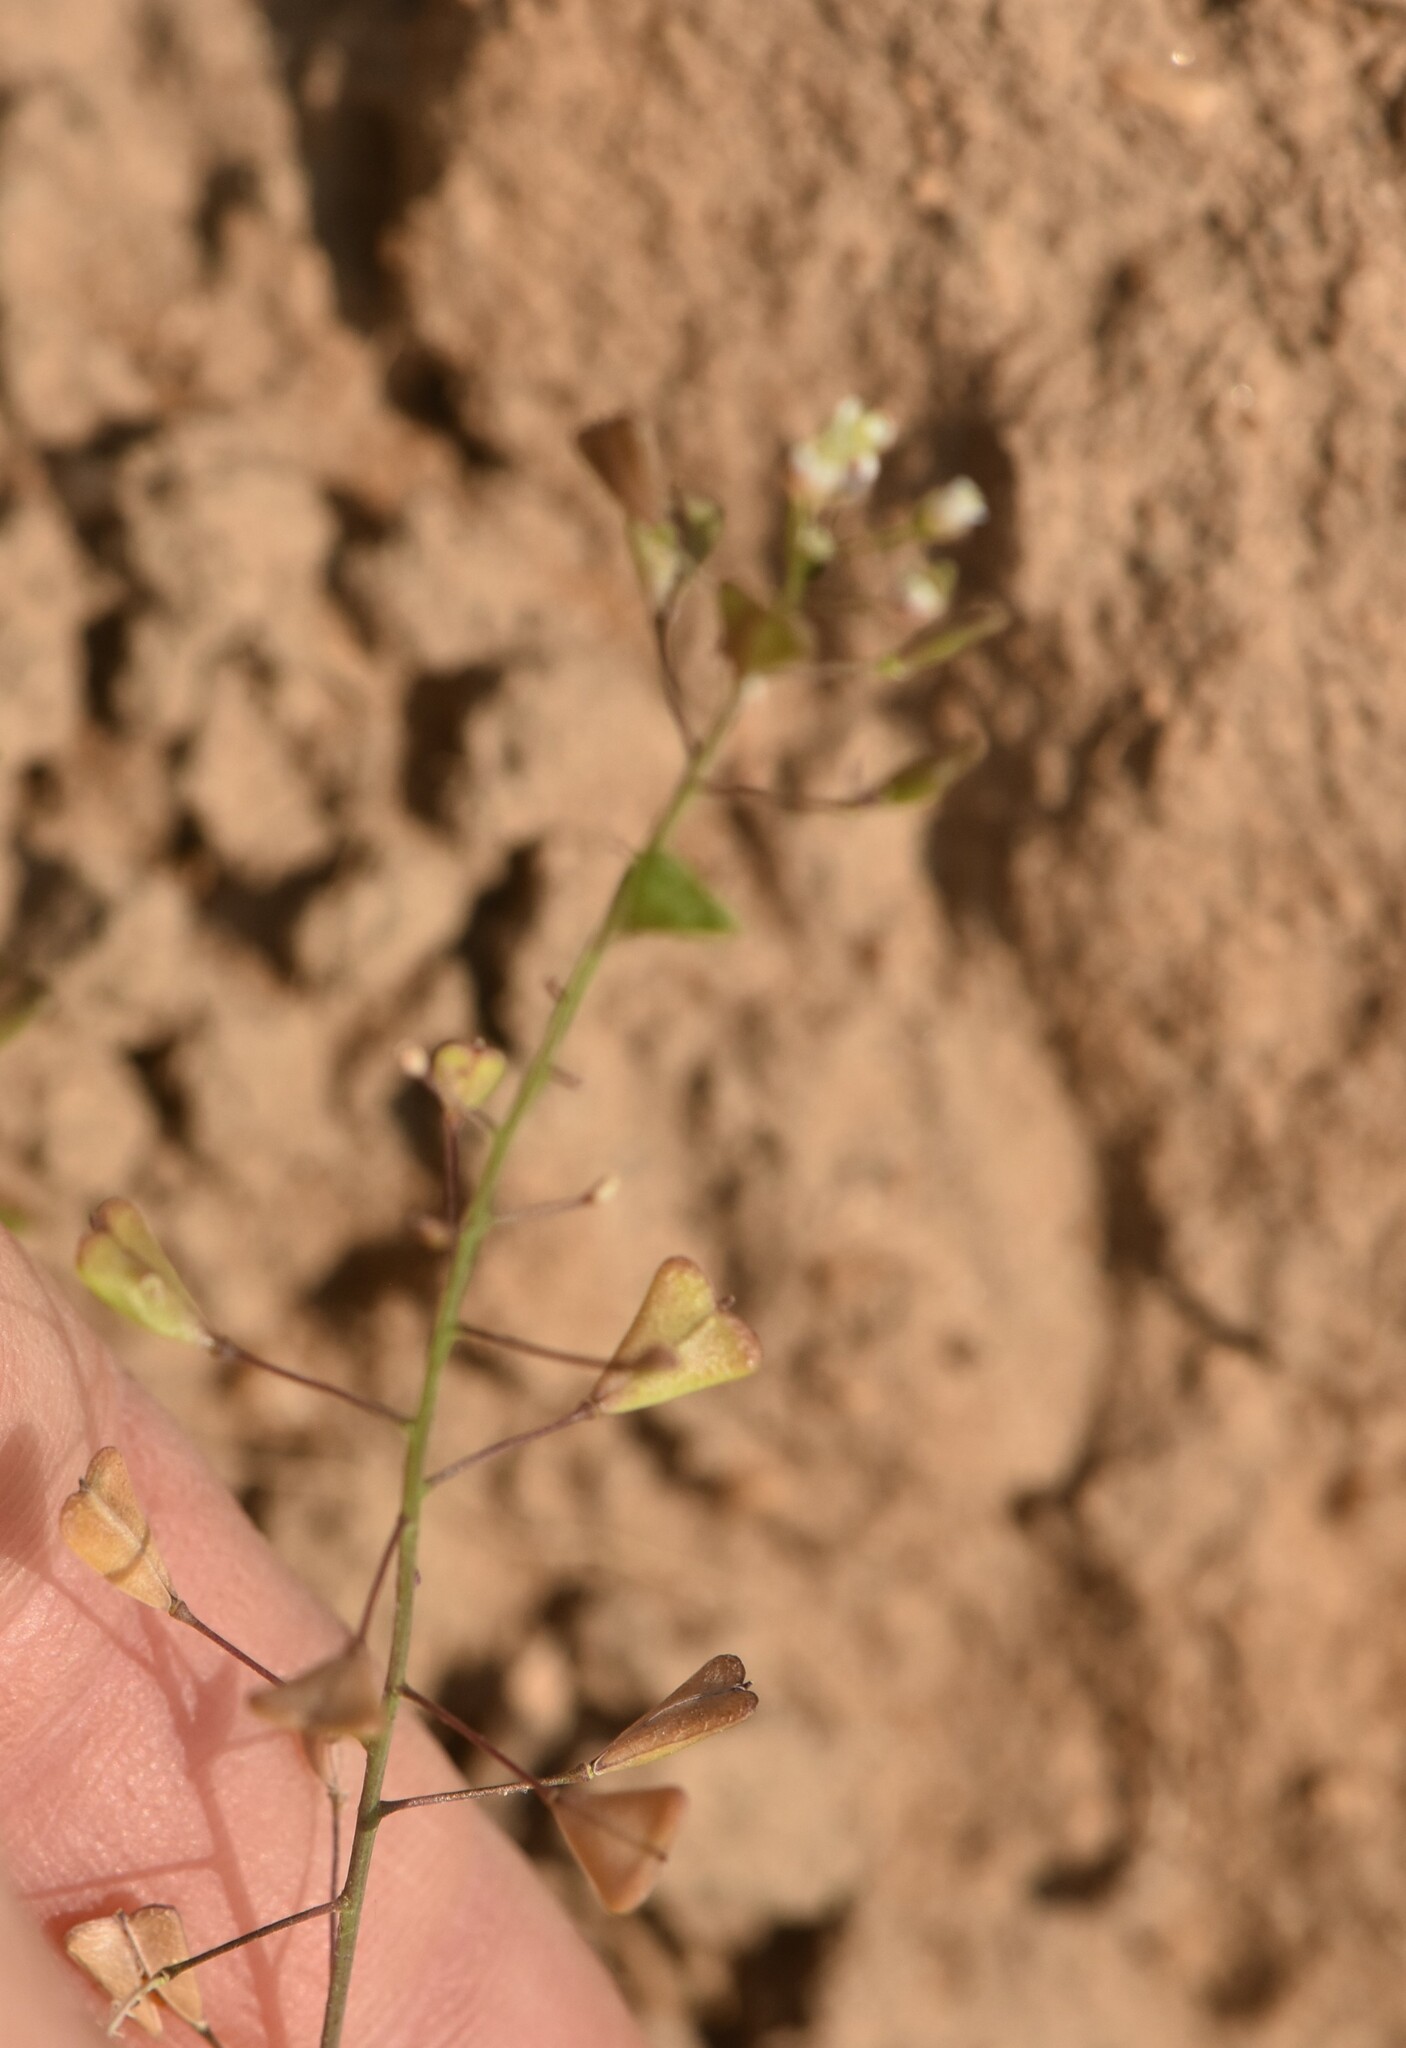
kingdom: Plantae
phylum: Tracheophyta
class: Magnoliopsida
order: Brassicales
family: Brassicaceae
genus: Capsella
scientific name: Capsella bursa-pastoris
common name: Shepherd's purse
